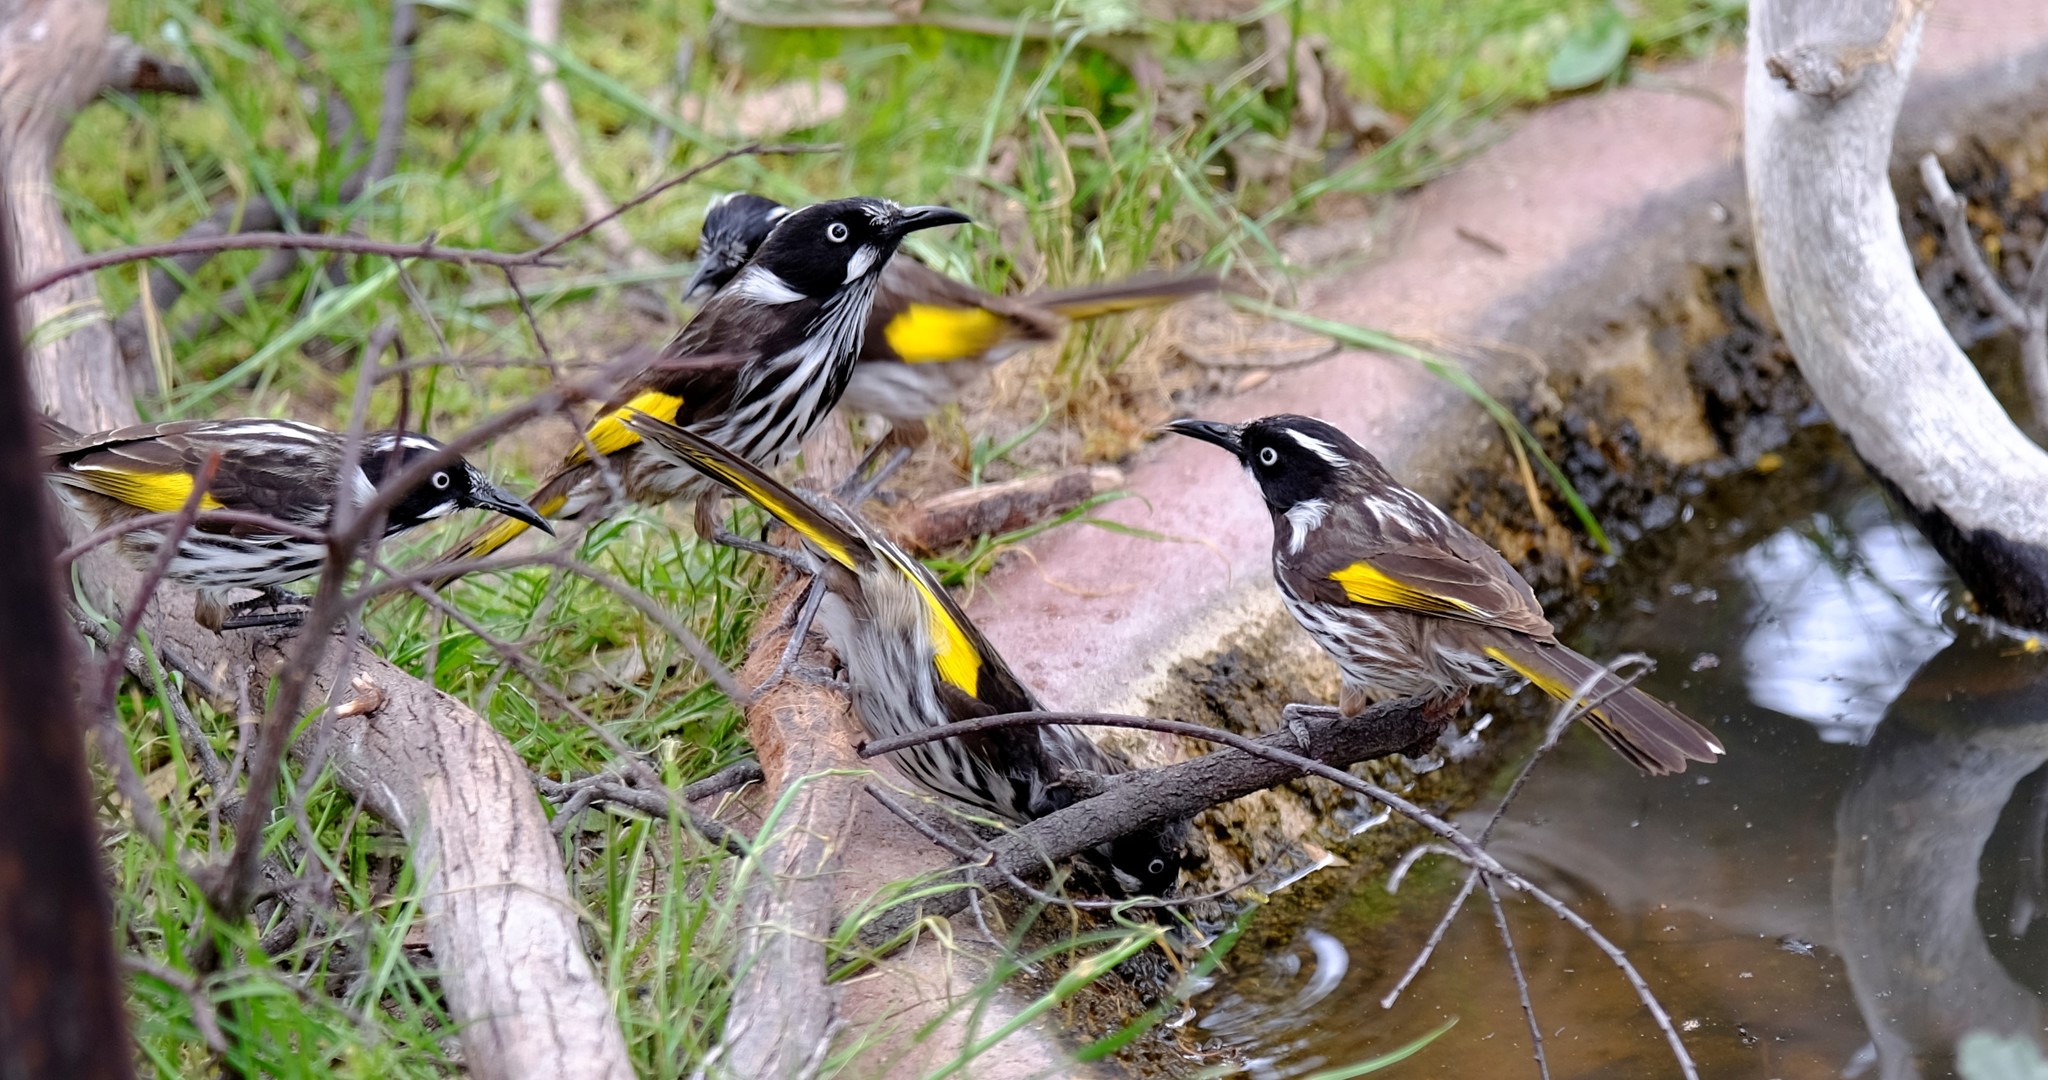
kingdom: Animalia
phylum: Chordata
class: Aves
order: Passeriformes
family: Meliphagidae
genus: Phylidonyris
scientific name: Phylidonyris novaehollandiae
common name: New holland honeyeater
